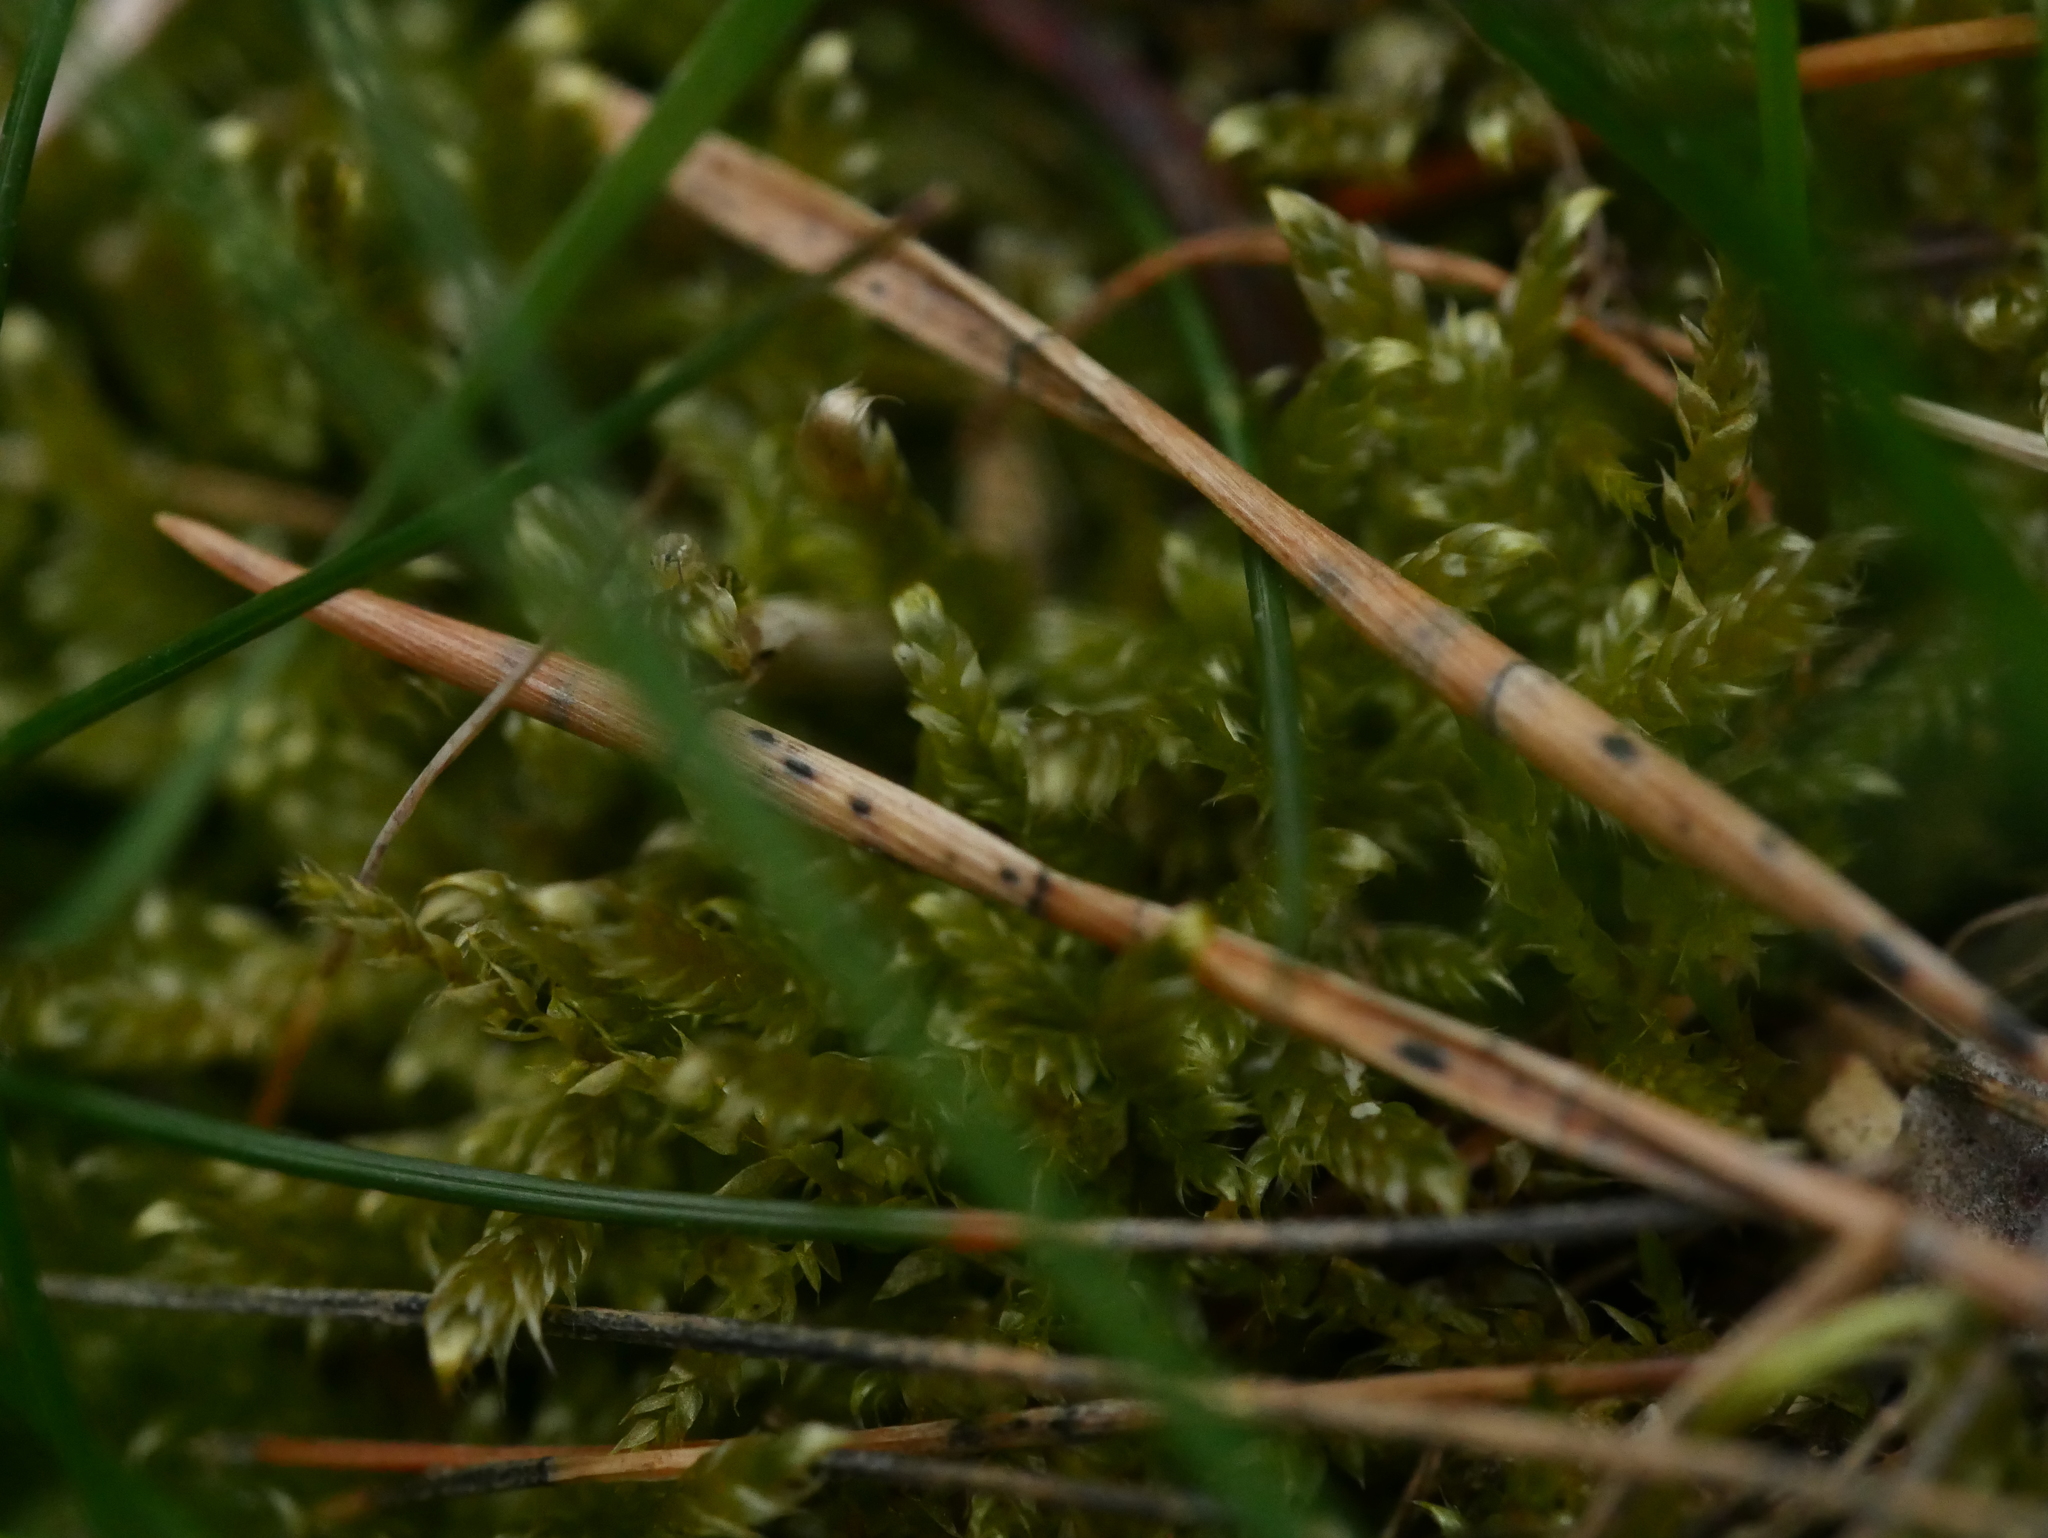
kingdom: Plantae
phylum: Bryophyta
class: Bryopsida
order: Hypnales
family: Hypnaceae
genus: Hypnum
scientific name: Hypnum cupressiforme
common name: Cypress-leaved plait-moss
